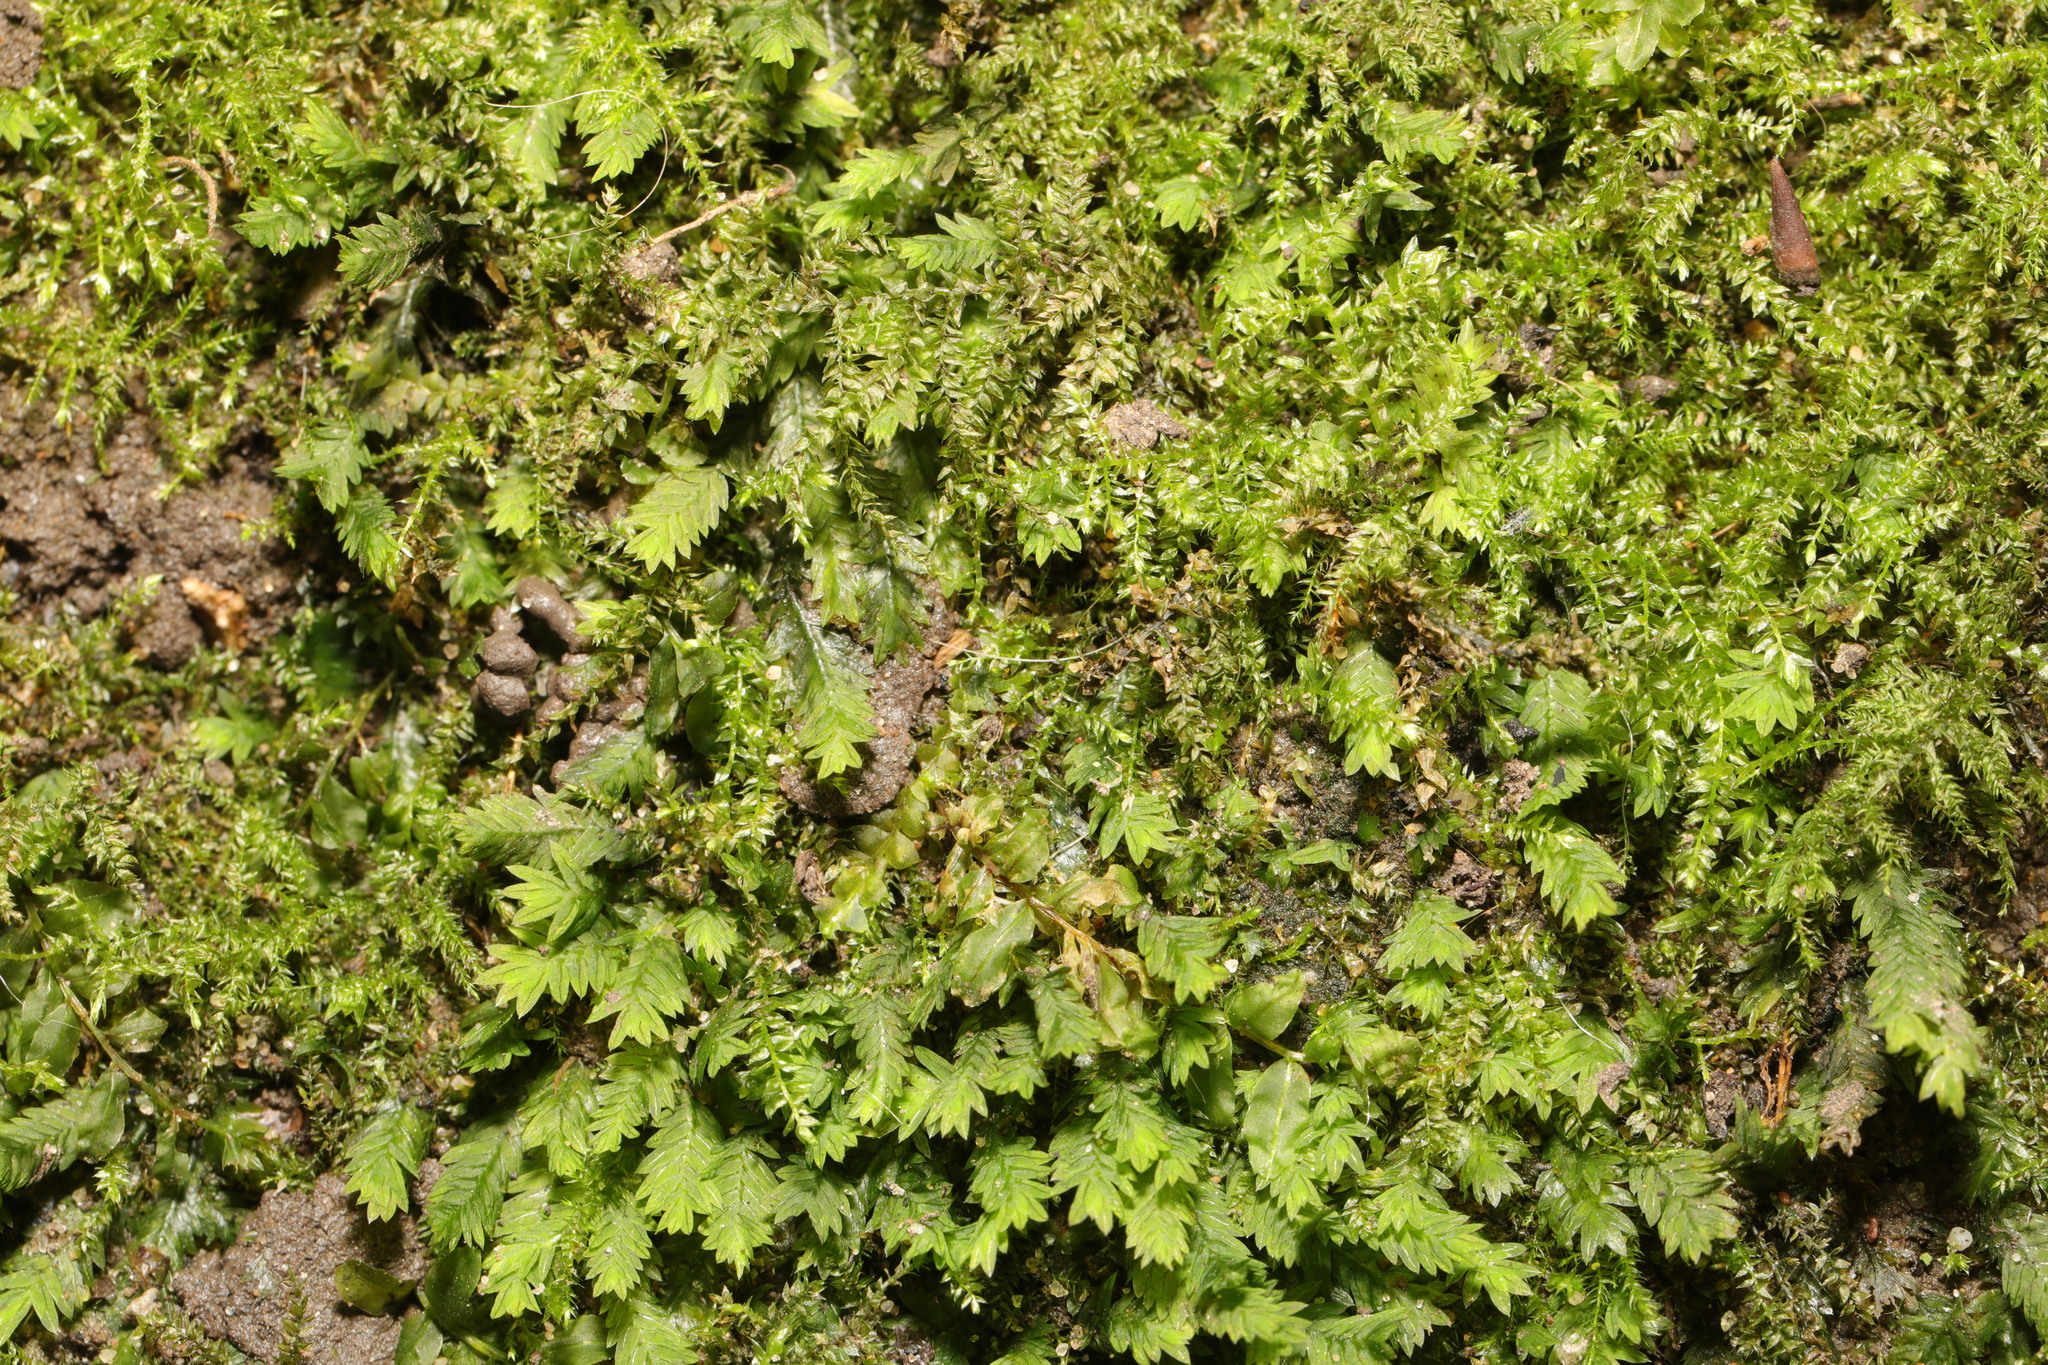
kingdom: Plantae
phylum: Bryophyta
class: Bryopsida
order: Dicranales
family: Fissidentaceae
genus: Fissidens
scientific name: Fissidens taxifolius
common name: Yew-leaved pocket moss
